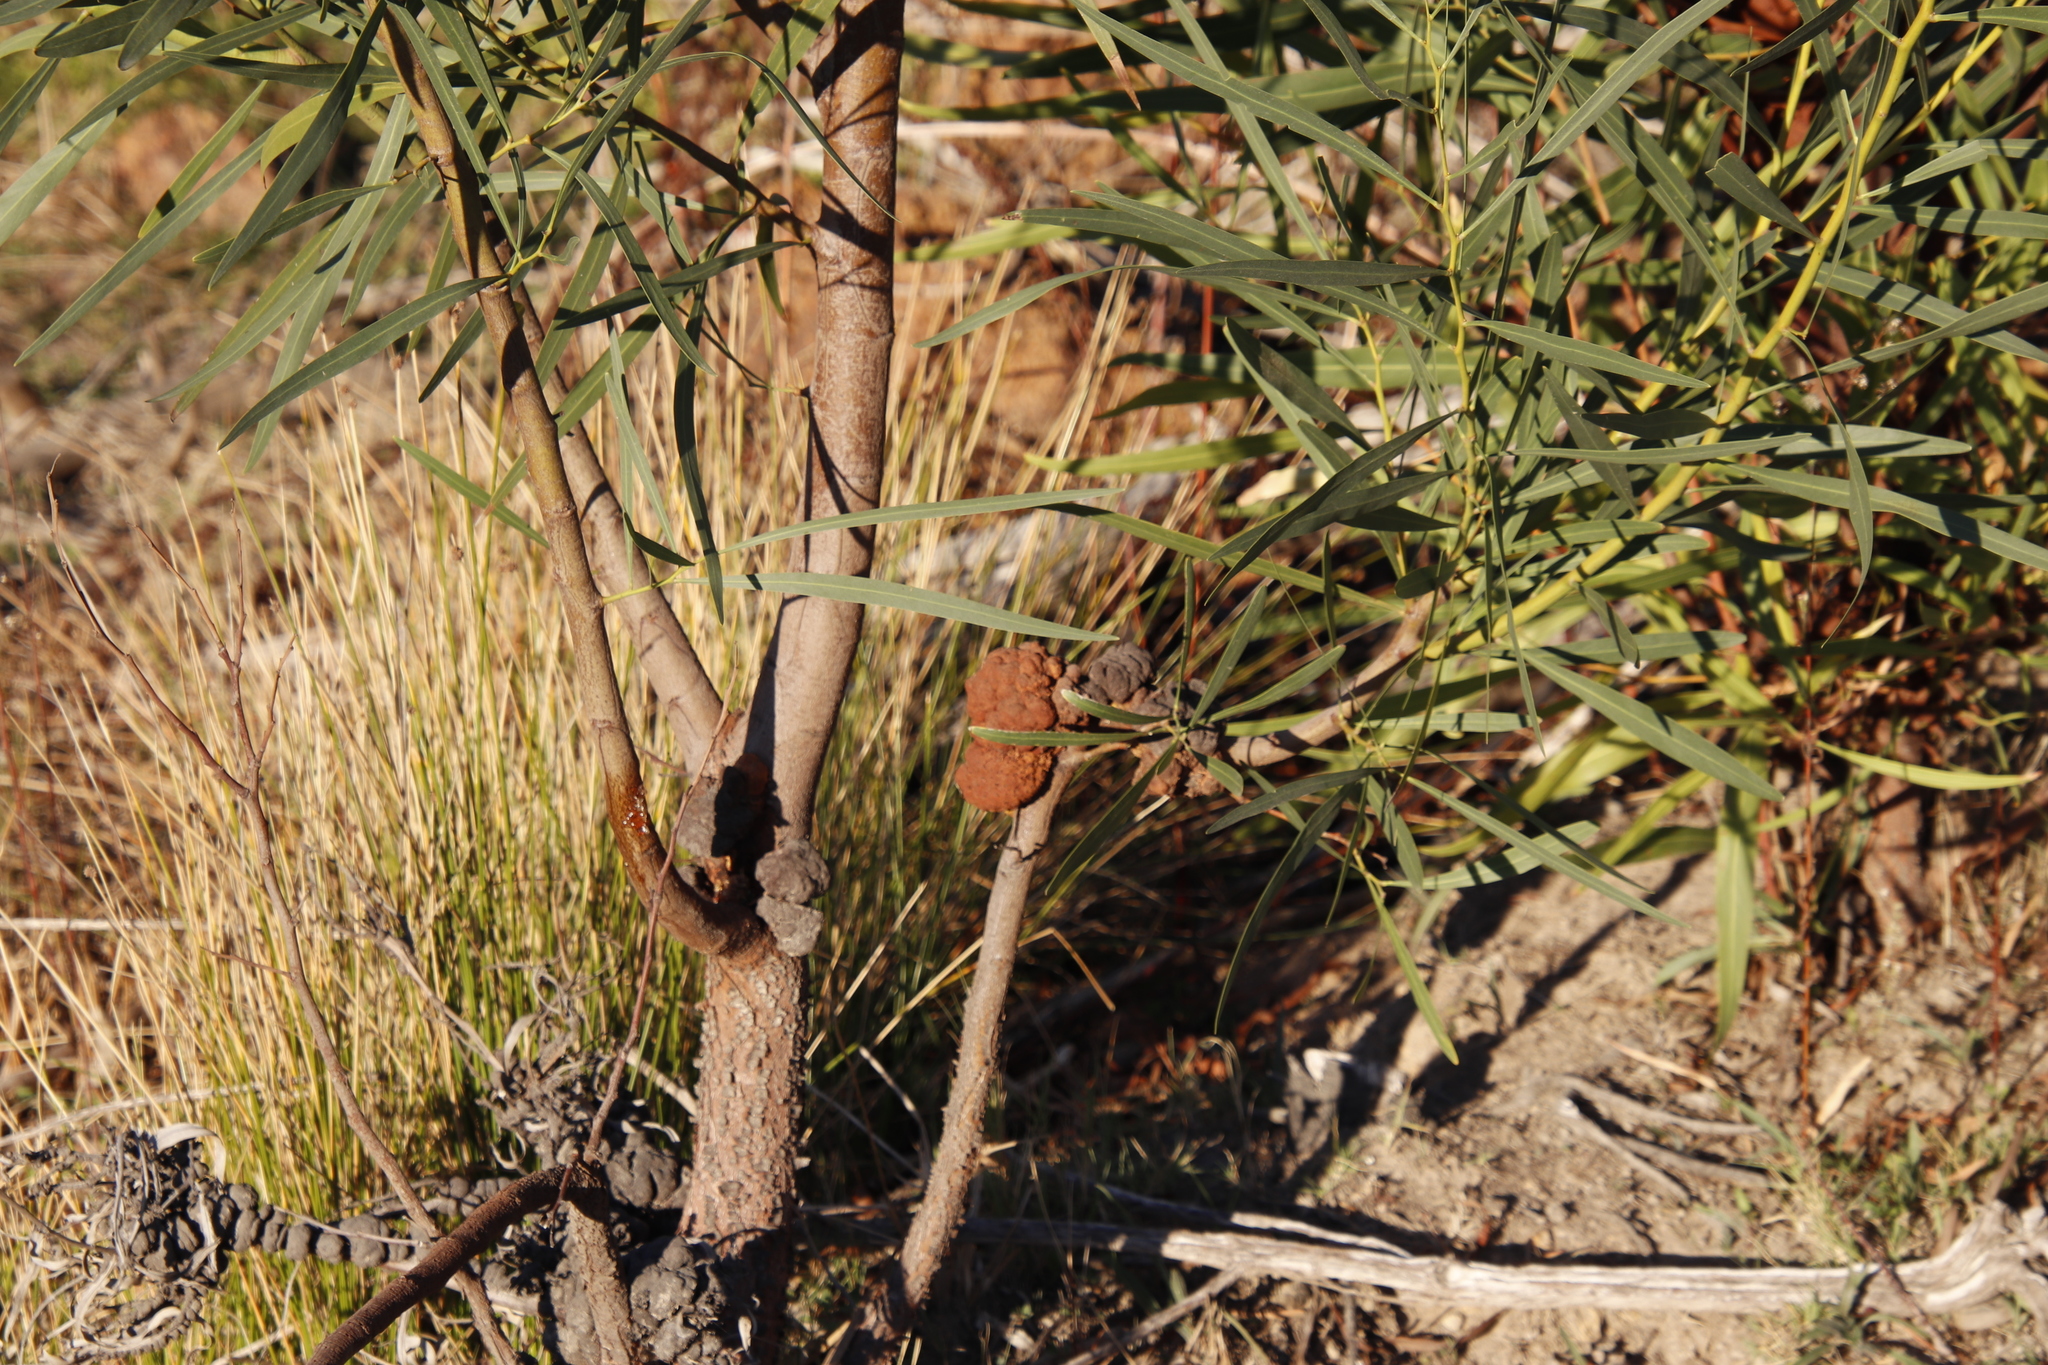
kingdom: Fungi
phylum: Basidiomycota
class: Pucciniomycetes
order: Pucciniales
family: Uromycladiaceae
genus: Uromycladium
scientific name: Uromycladium morrisii
